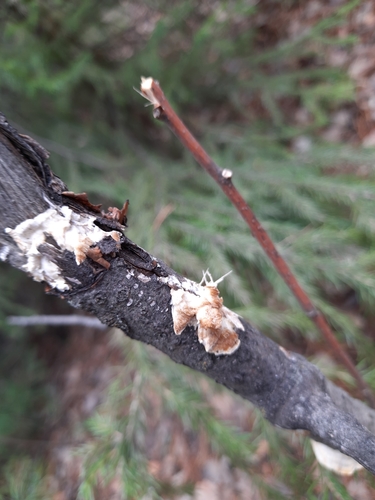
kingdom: Fungi
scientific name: Fungi
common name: Fungi
